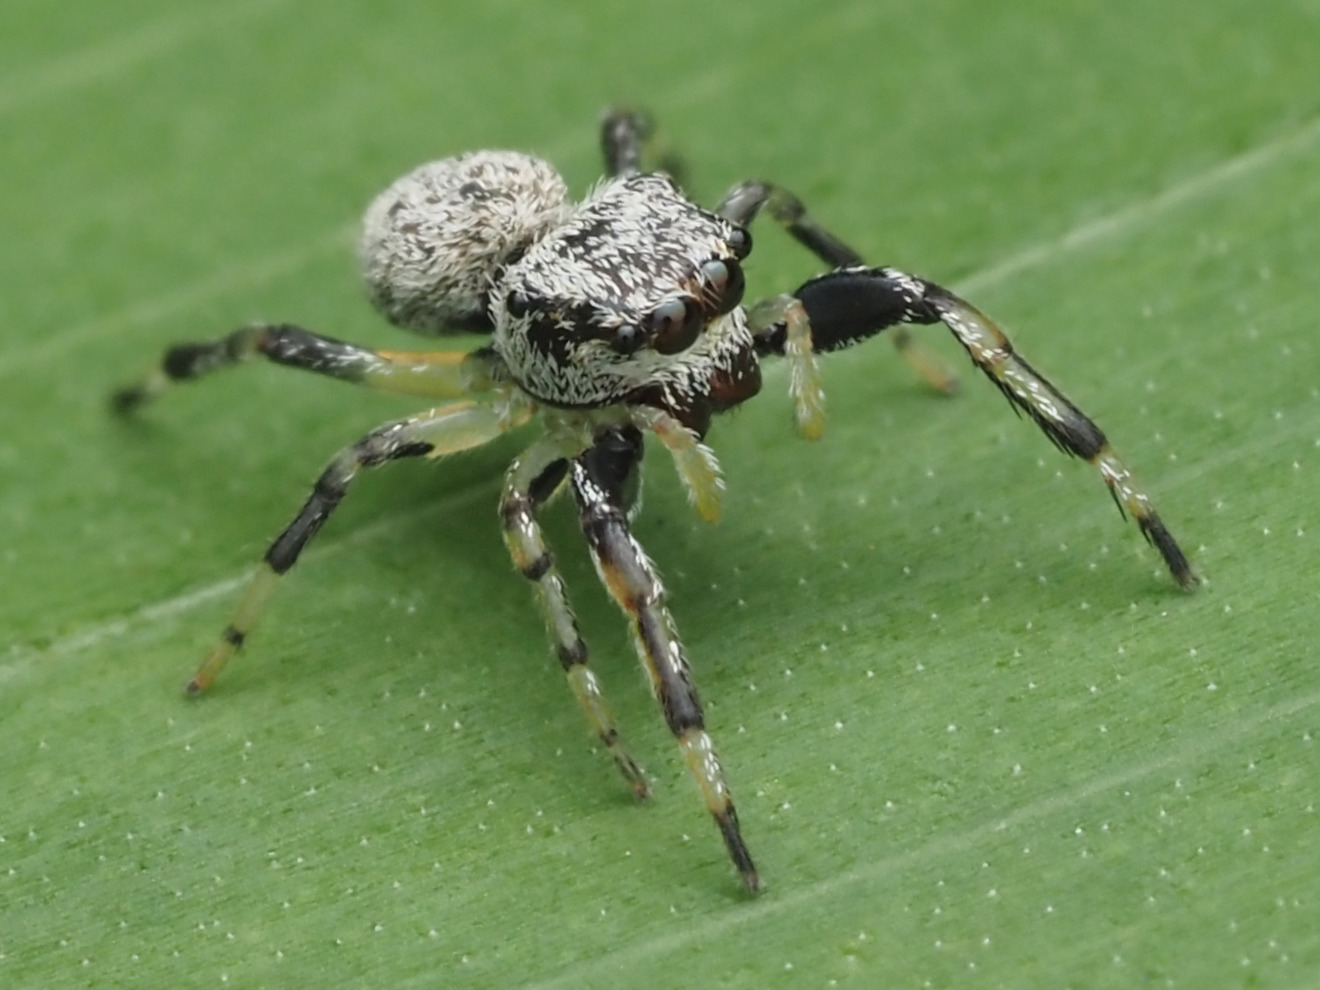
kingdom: Animalia
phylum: Arthropoda
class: Arachnida
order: Araneae
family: Salticidae
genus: Zygoballus
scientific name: Zygoballus maculatipes
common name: Jumping spiders
